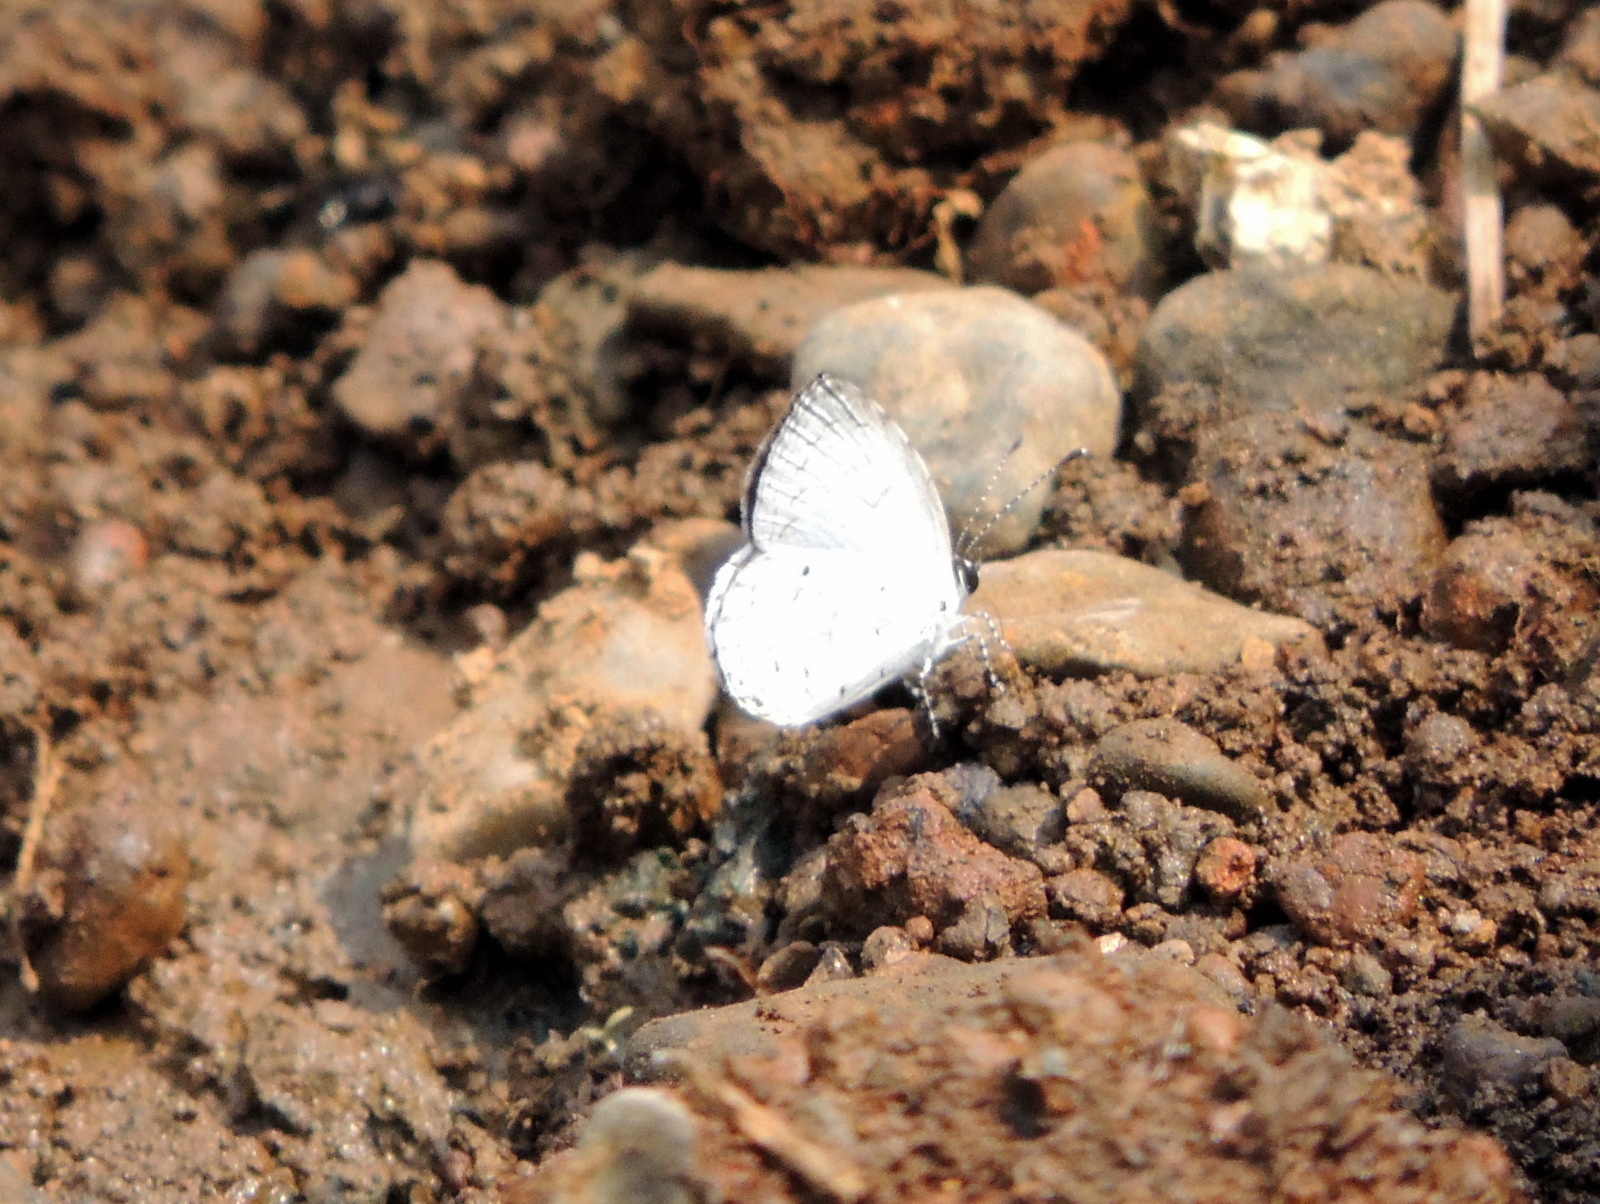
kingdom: Animalia
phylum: Arthropoda
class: Insecta
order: Lepidoptera
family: Lycaenidae
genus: Neopithecops
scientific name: Neopithecops zalmora
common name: Quaker
